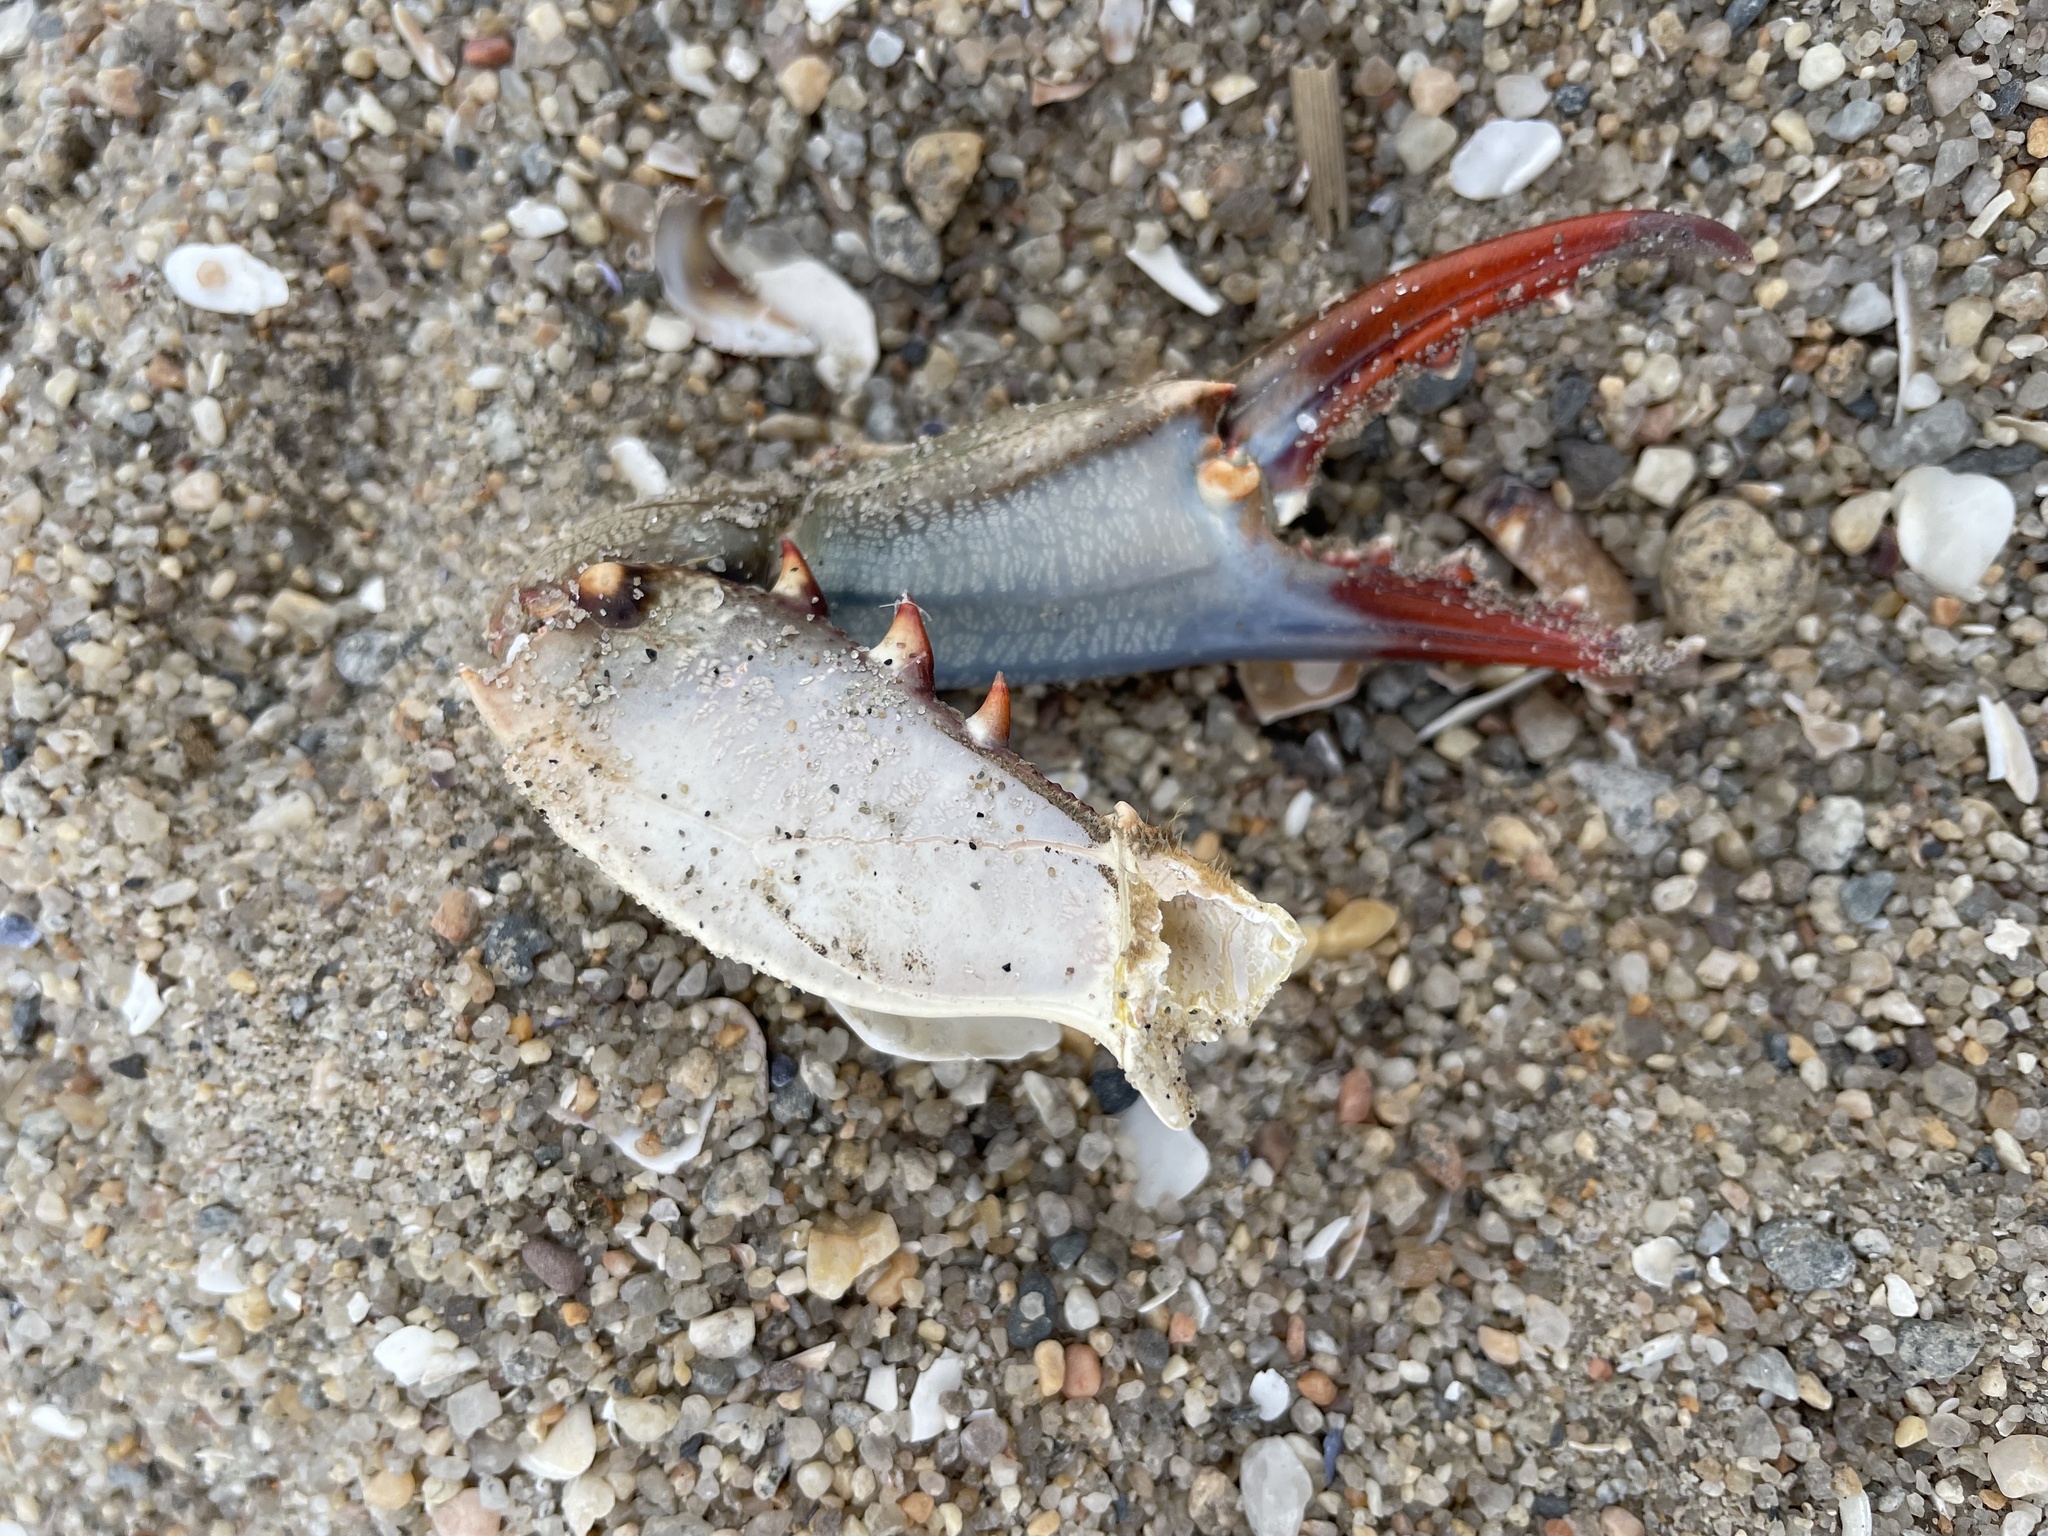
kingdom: Animalia
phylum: Arthropoda
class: Malacostraca
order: Decapoda
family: Portunidae
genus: Callinectes
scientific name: Callinectes sapidus
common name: Blue crab
